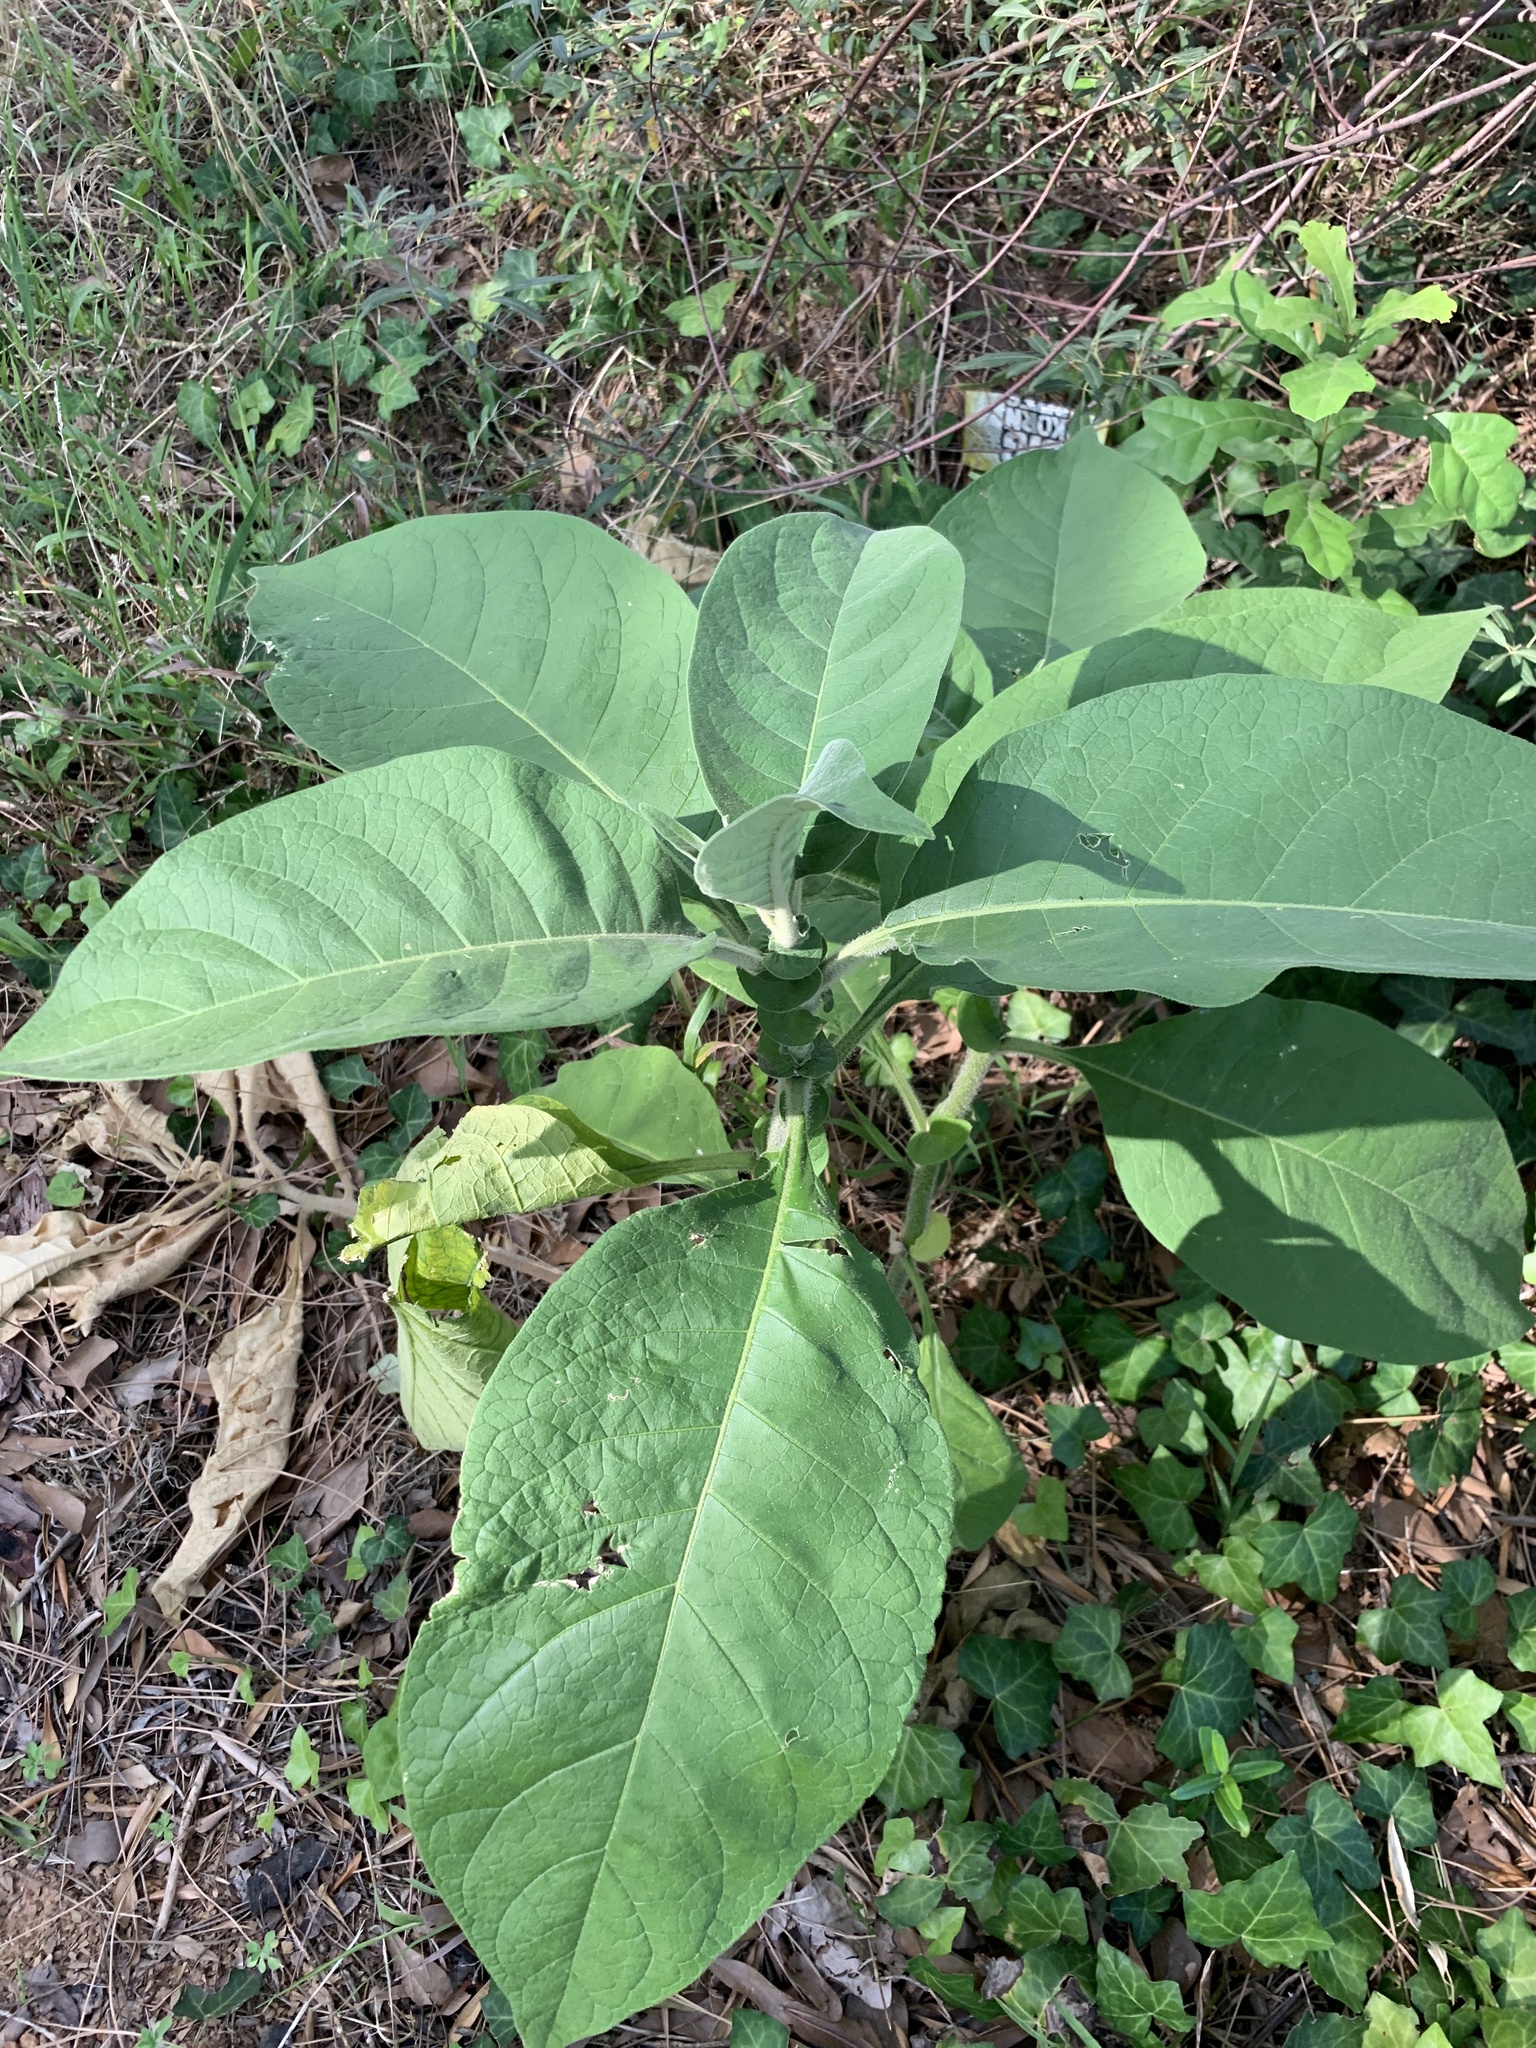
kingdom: Plantae
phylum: Tracheophyta
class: Magnoliopsida
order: Solanales
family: Solanaceae
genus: Solanum
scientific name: Solanum mauritianum
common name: Earleaf nightshade
